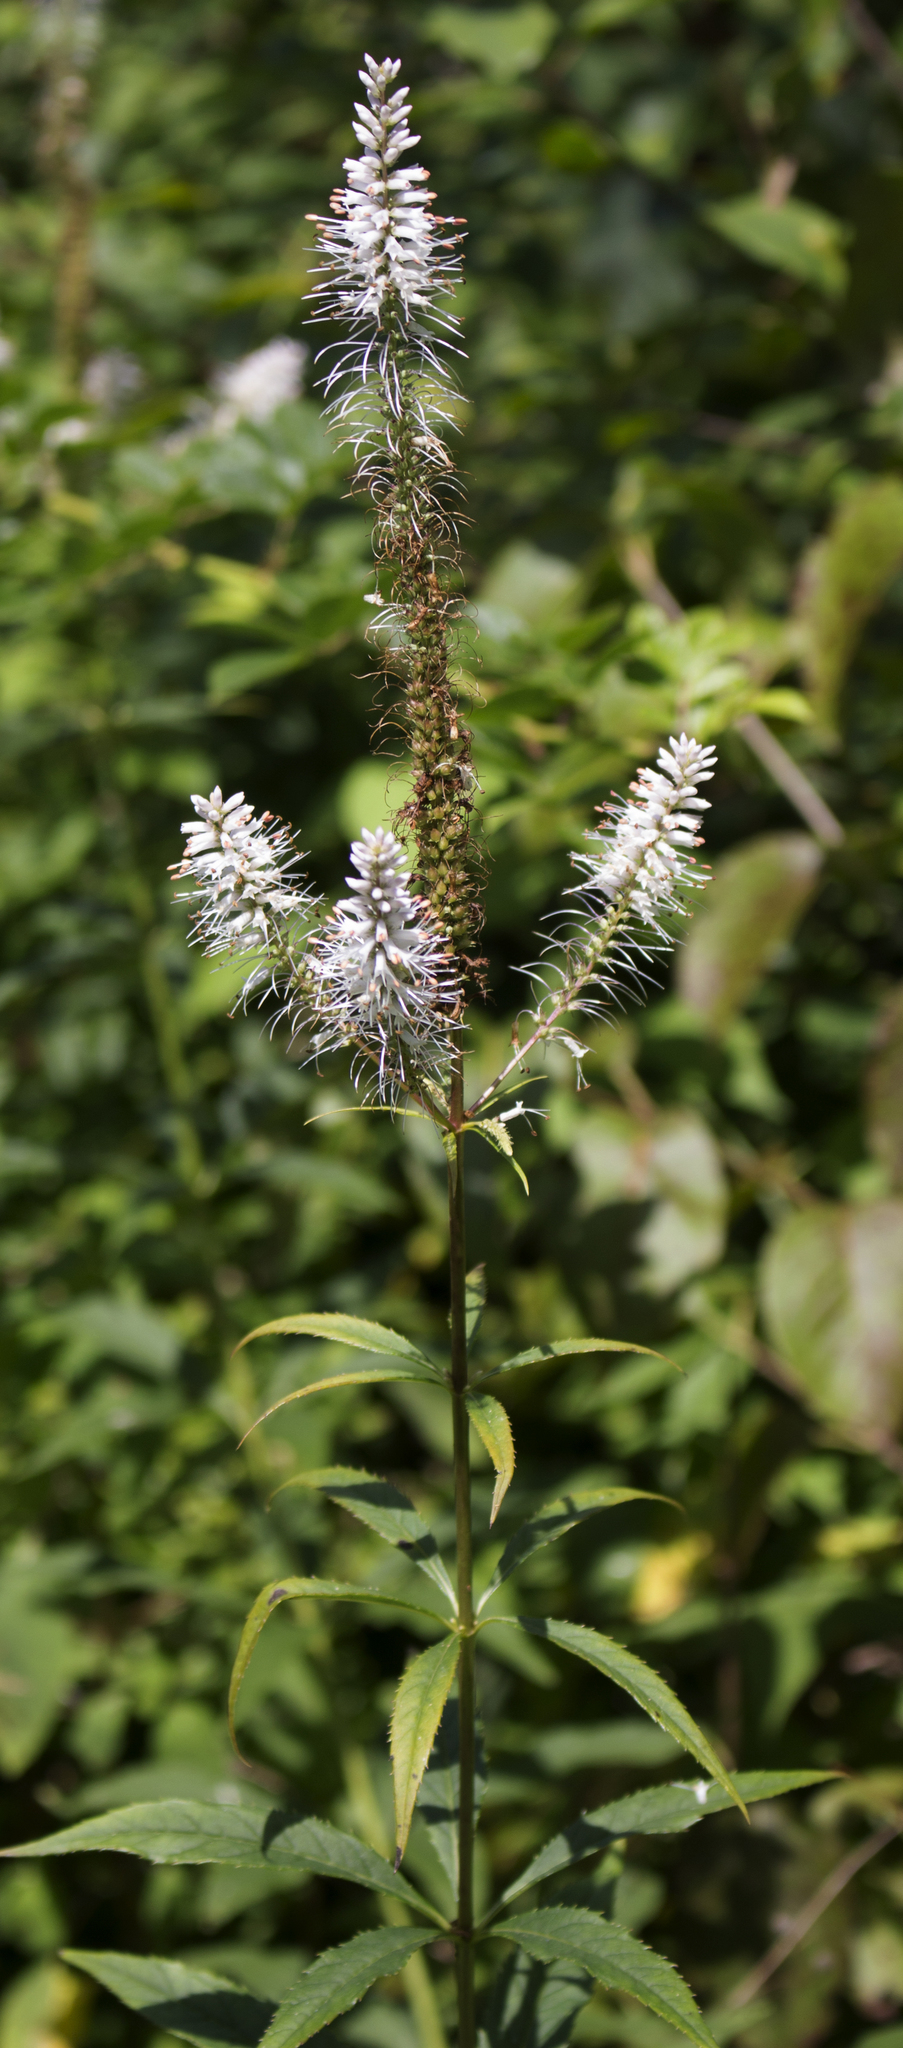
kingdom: Plantae
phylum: Tracheophyta
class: Magnoliopsida
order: Lamiales
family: Plantaginaceae
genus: Veronicastrum
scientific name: Veronicastrum virginicum
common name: Blackroot
